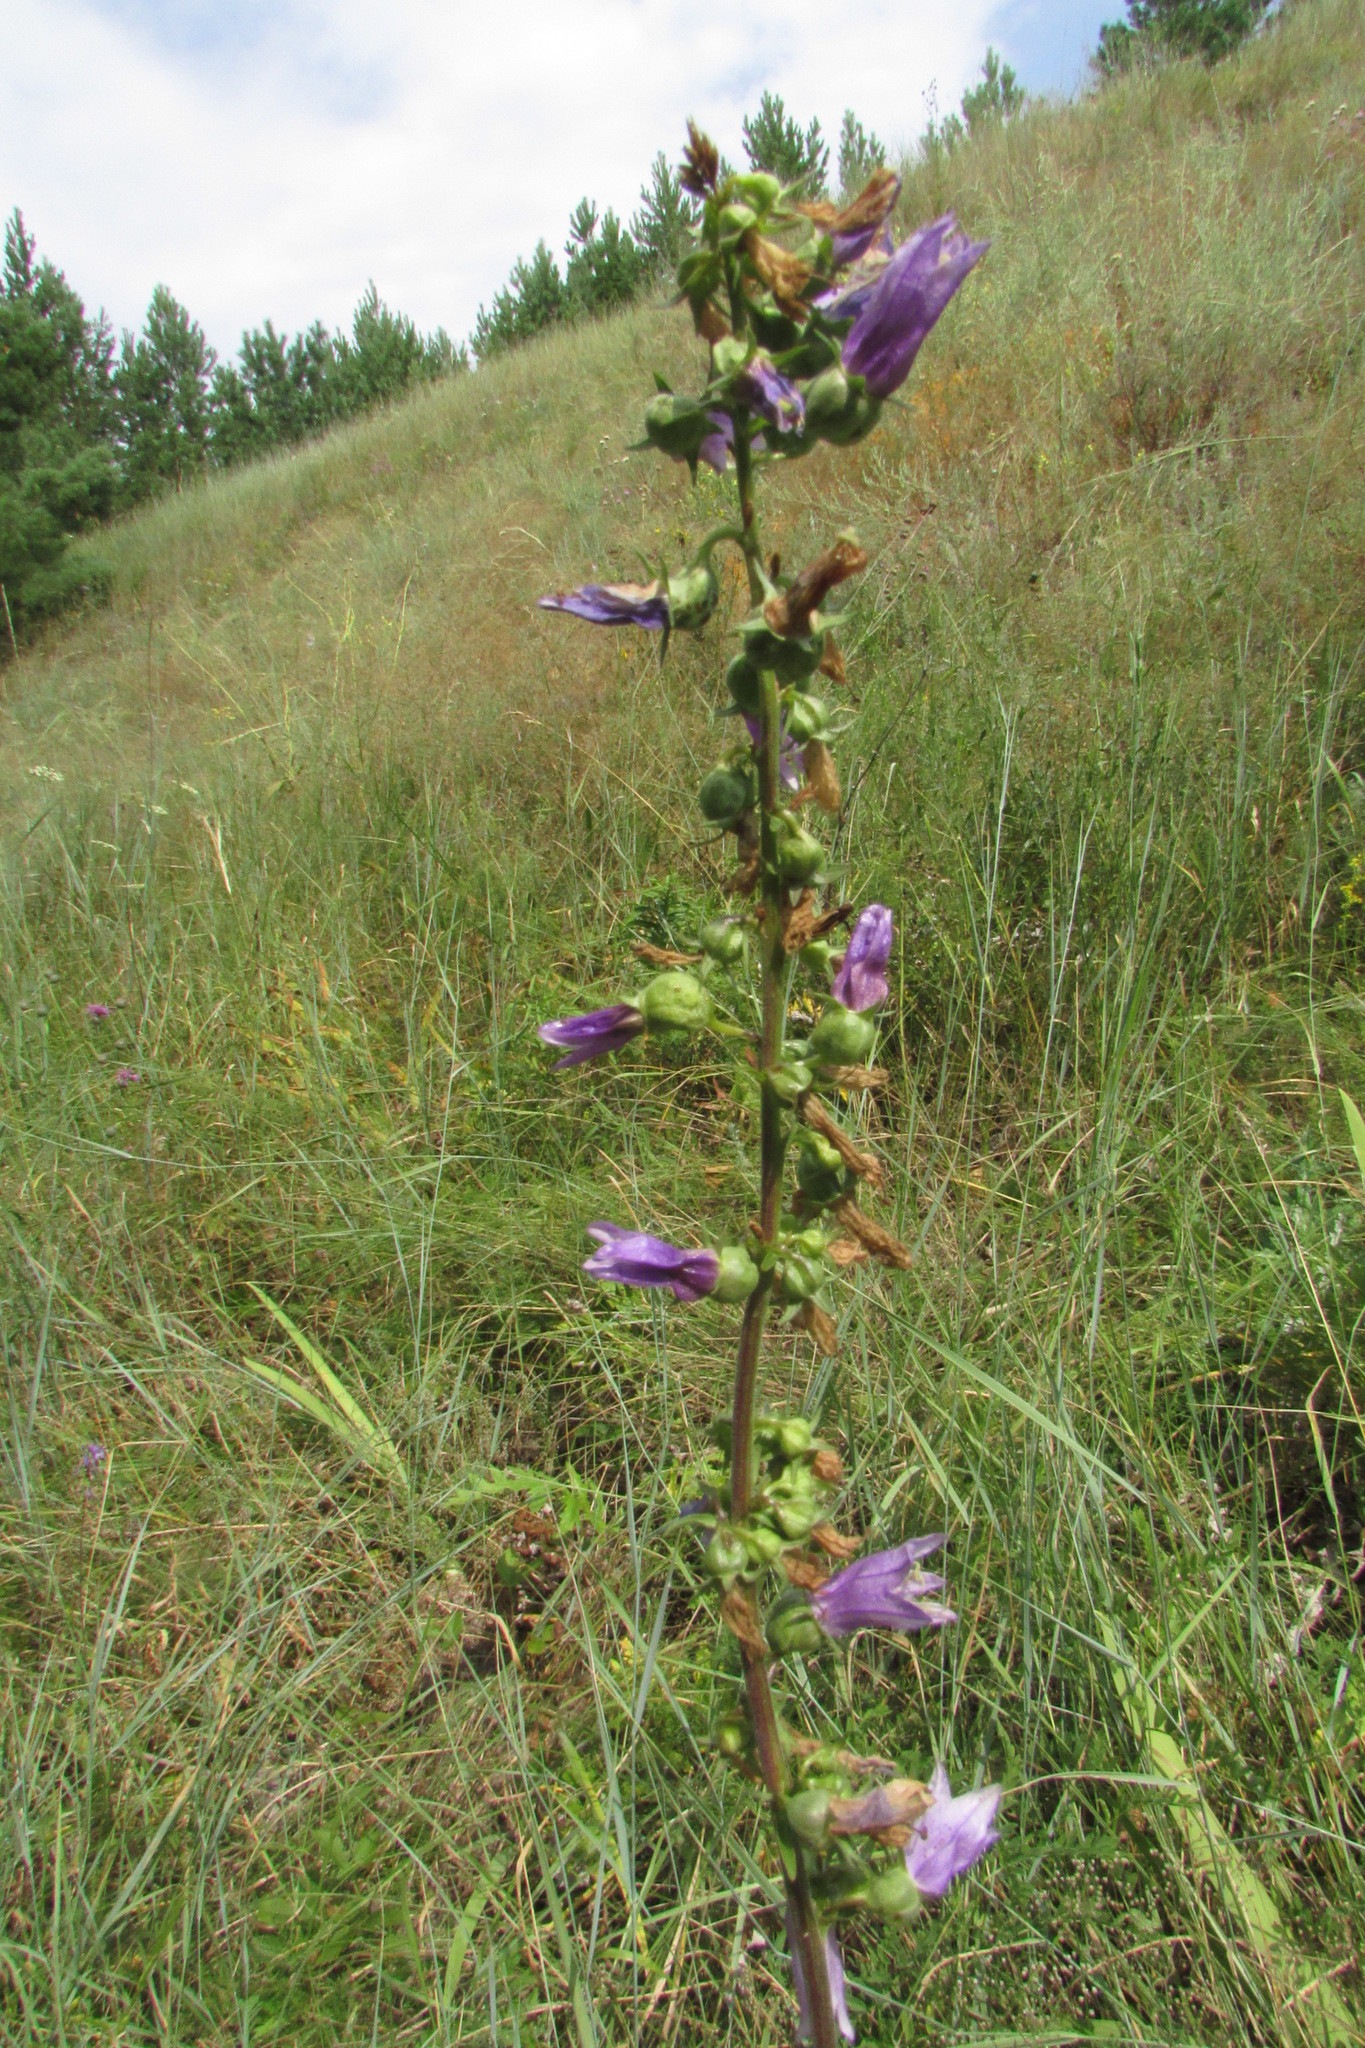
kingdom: Plantae
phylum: Tracheophyta
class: Magnoliopsida
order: Asterales
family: Campanulaceae
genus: Campanula
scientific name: Campanula bononiensis
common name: Pale bellflower
